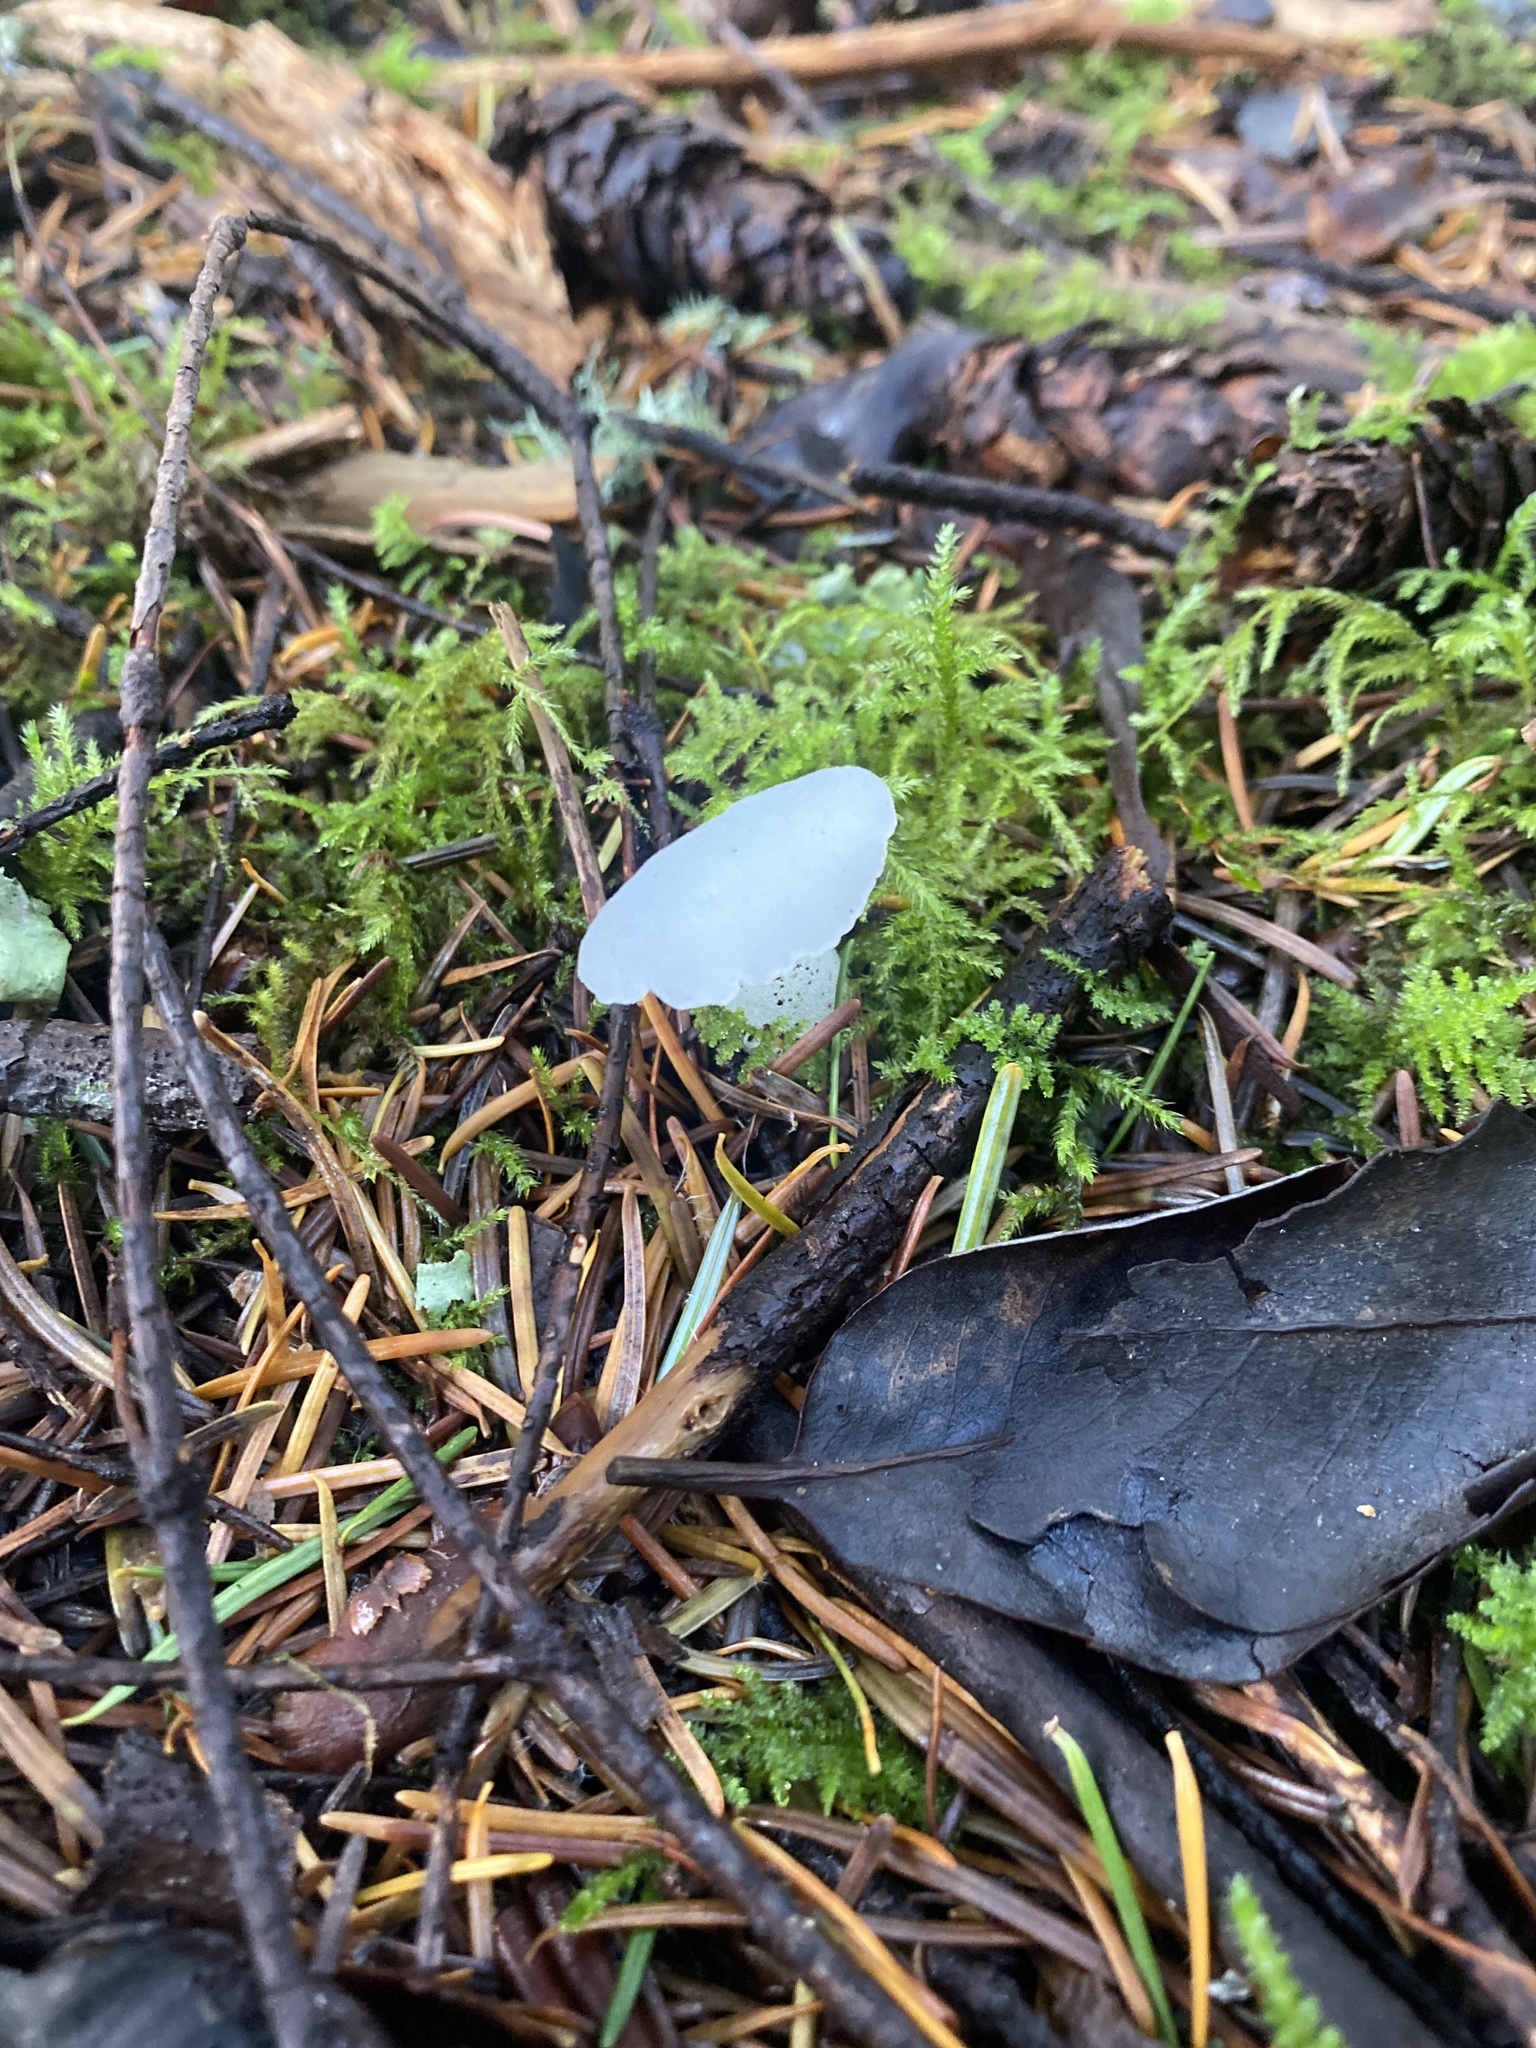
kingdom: Fungi
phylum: Basidiomycota
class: Agaricomycetes
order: Auriculariales
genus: Pseudohydnum
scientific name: Pseudohydnum gelatinosum
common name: Jelly tongue
